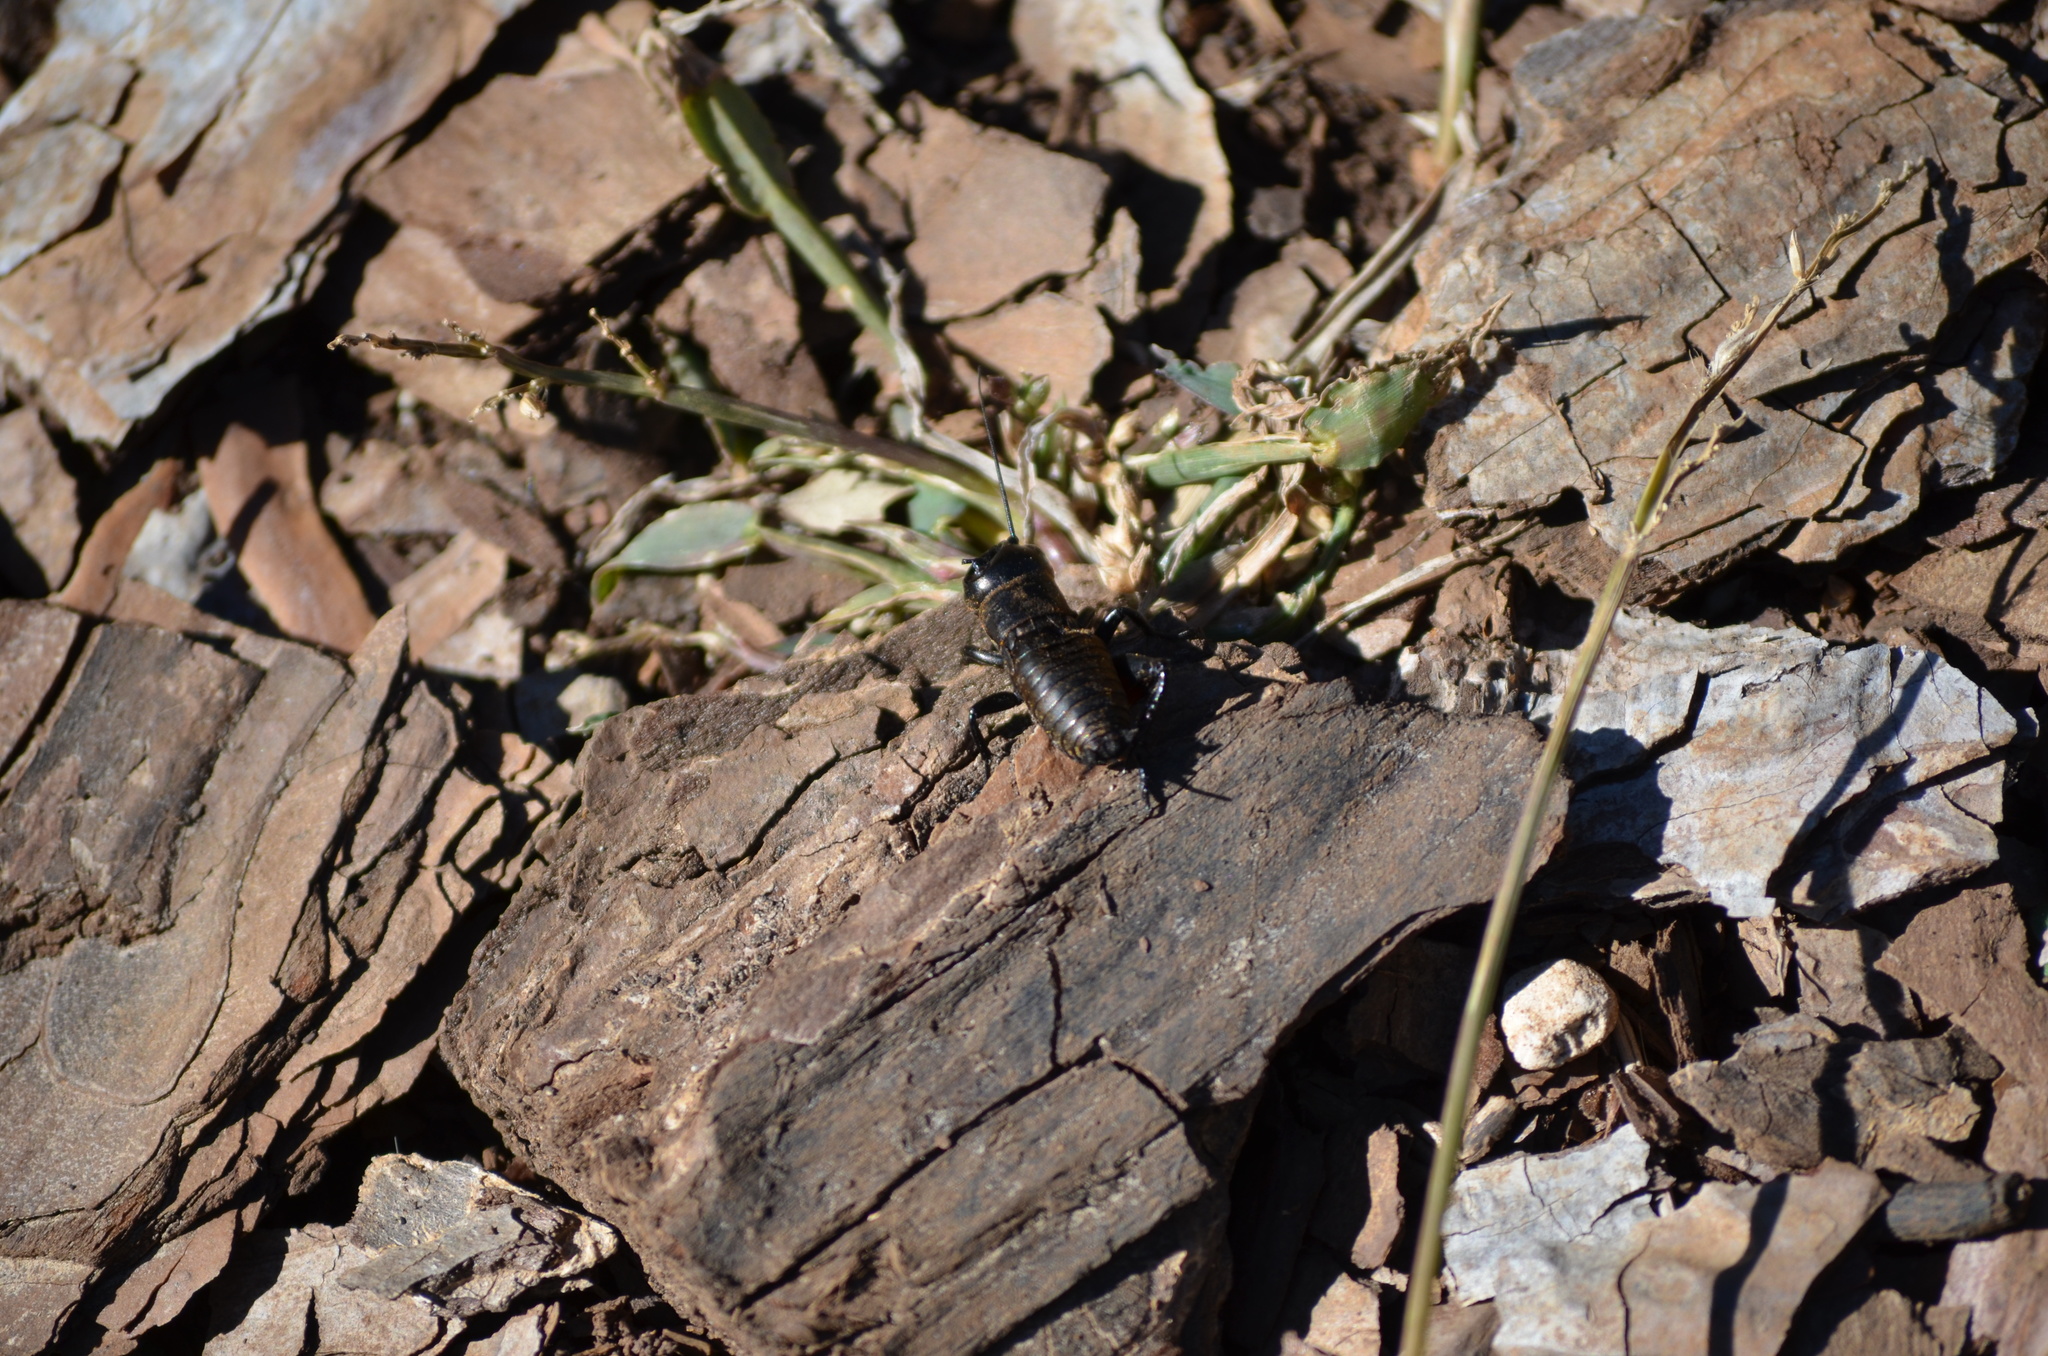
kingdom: Animalia
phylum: Arthropoda
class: Insecta
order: Orthoptera
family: Gryllidae
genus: Gryllus
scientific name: Gryllus campestris
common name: Field cricket
